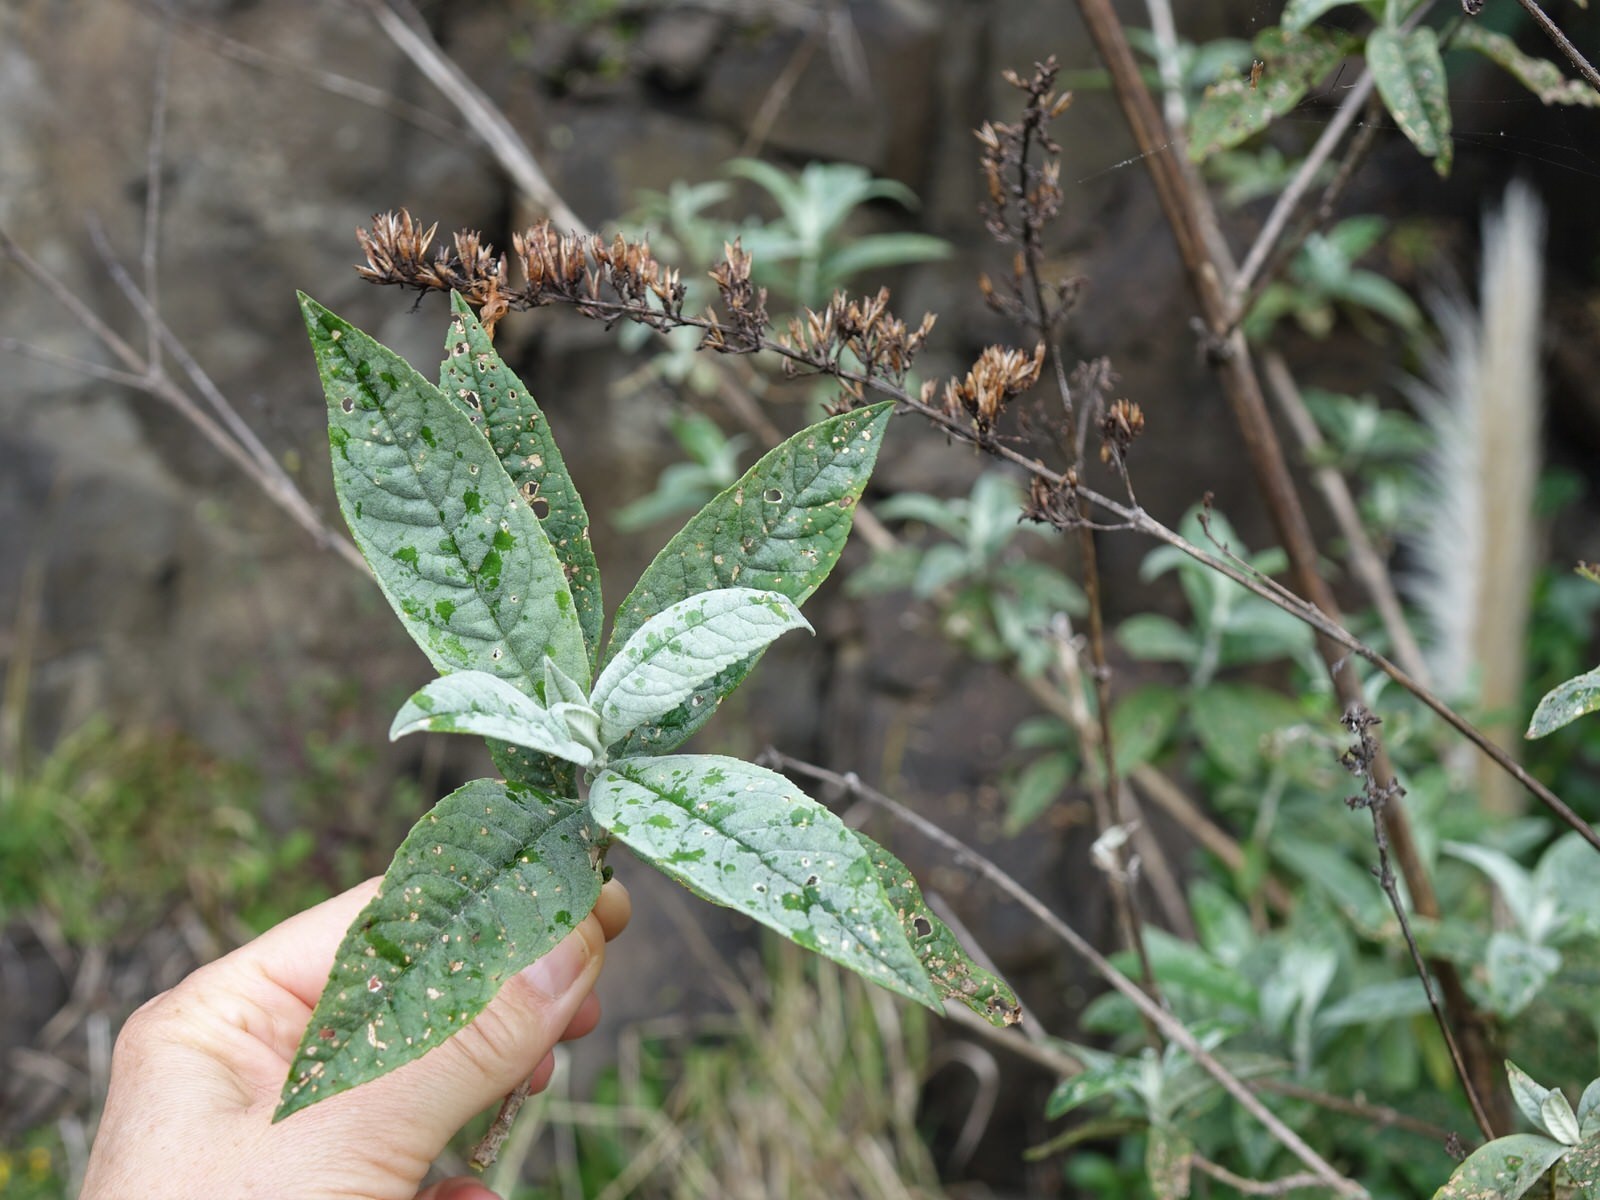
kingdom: Animalia
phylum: Arthropoda
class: Insecta
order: Coleoptera
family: Curculionidae
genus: Cleopus
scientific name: Cleopus japonicus
